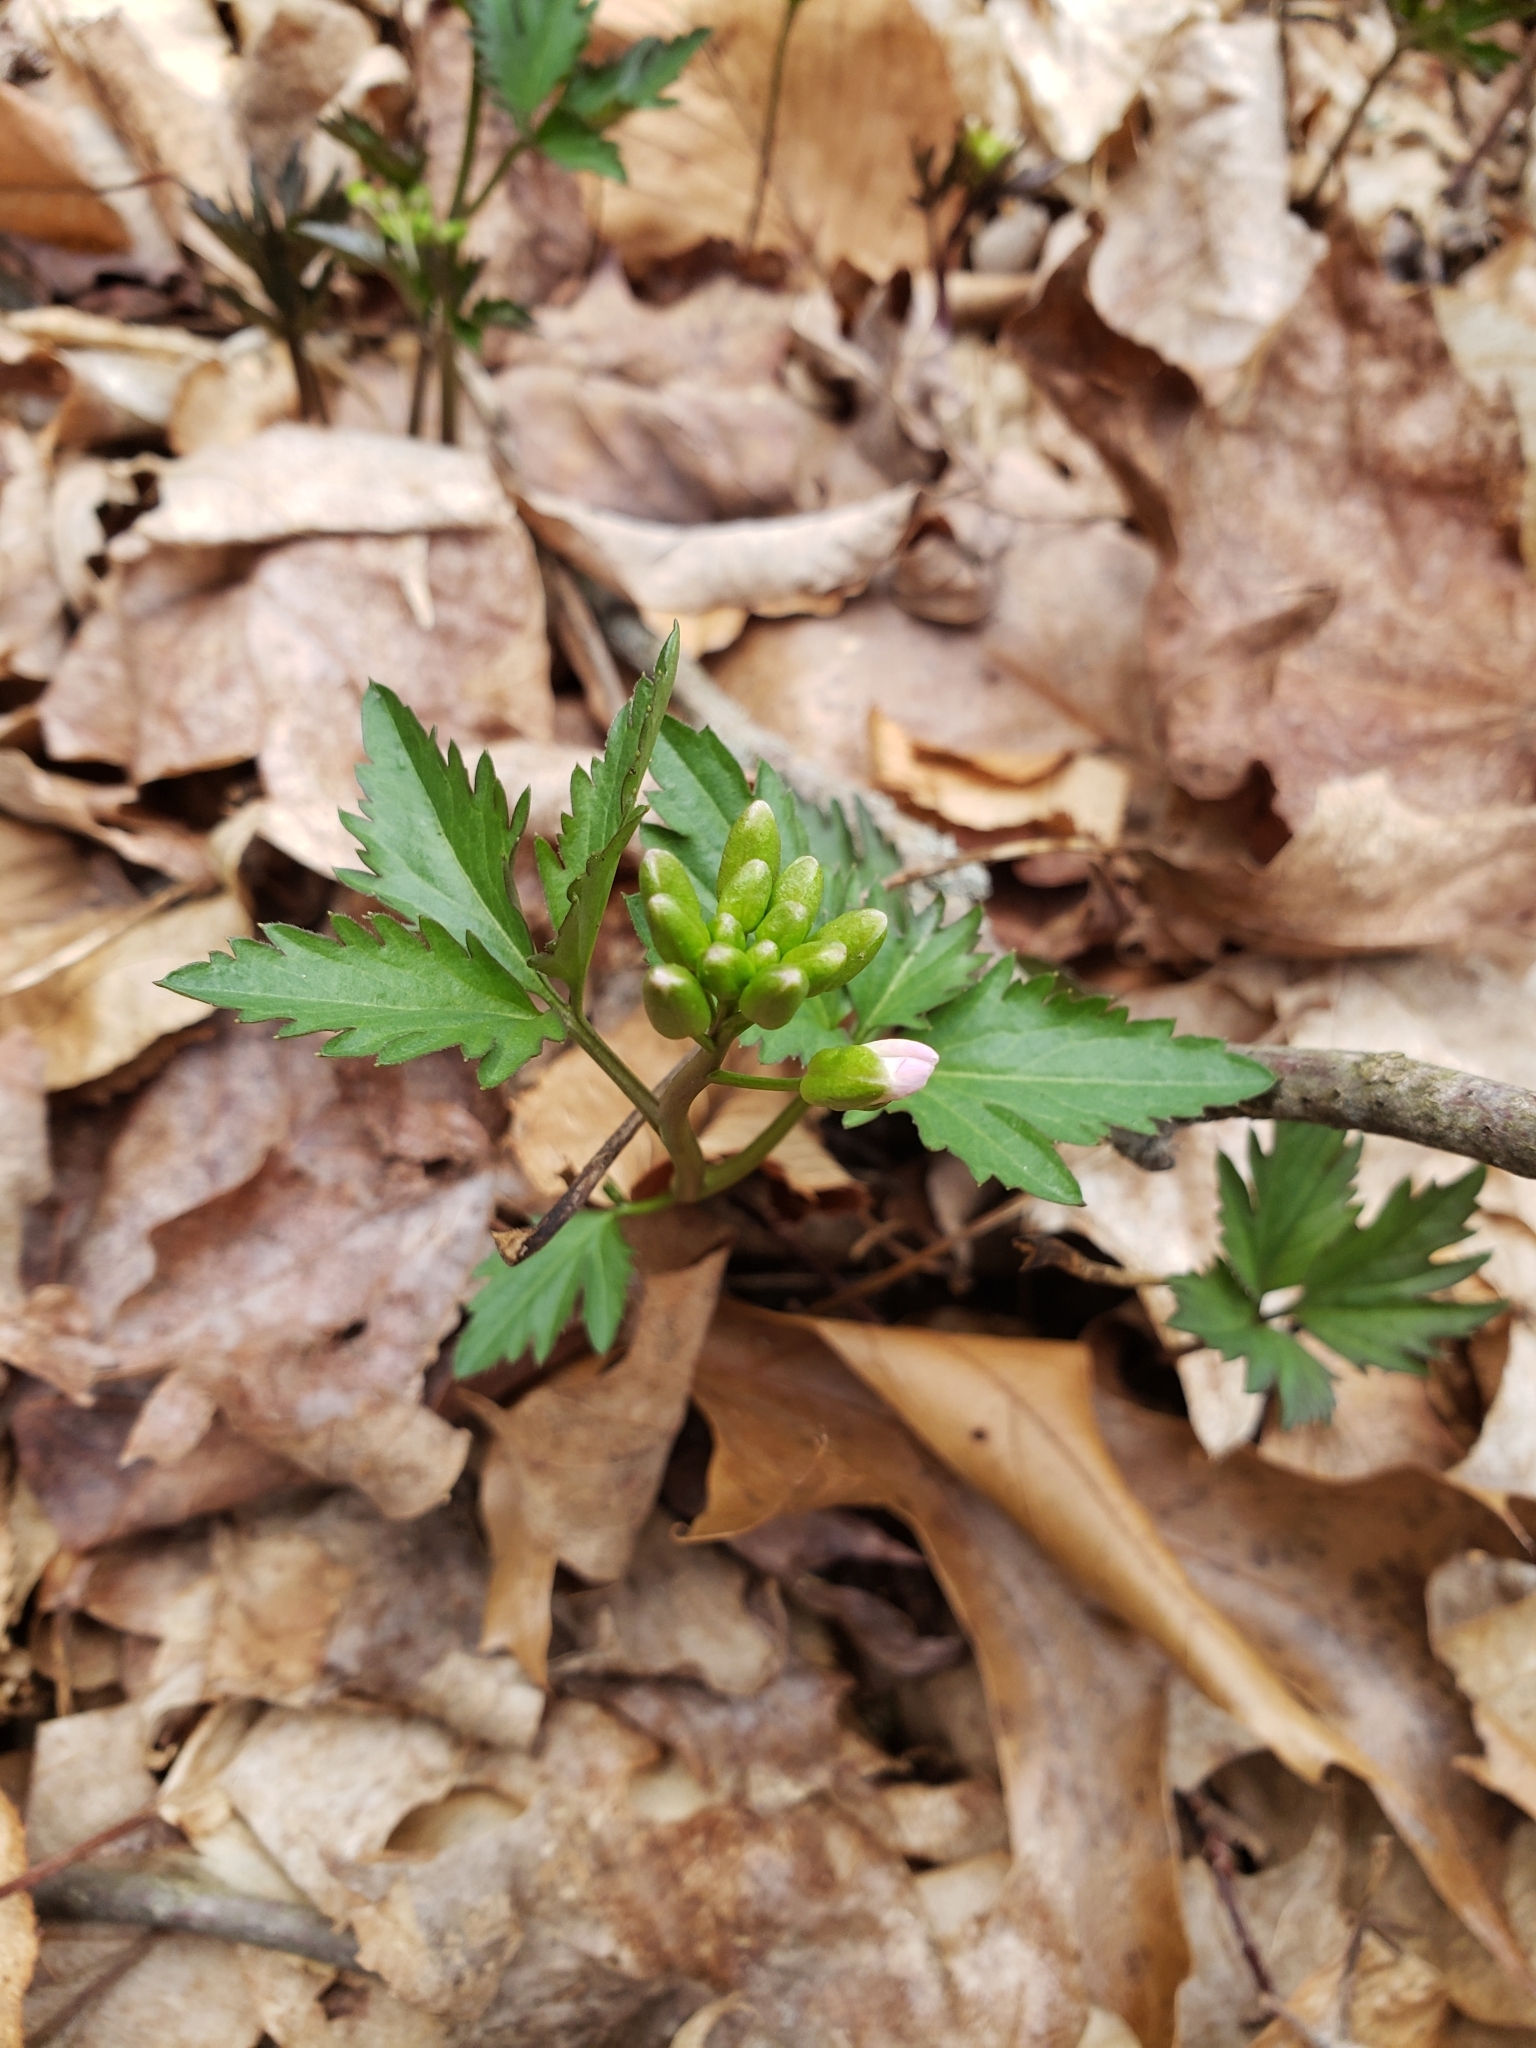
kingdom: Plantae
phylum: Tracheophyta
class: Magnoliopsida
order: Brassicales
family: Brassicaceae
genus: Cardamine
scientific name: Cardamine diphylla
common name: Broad-leaved toothwort
